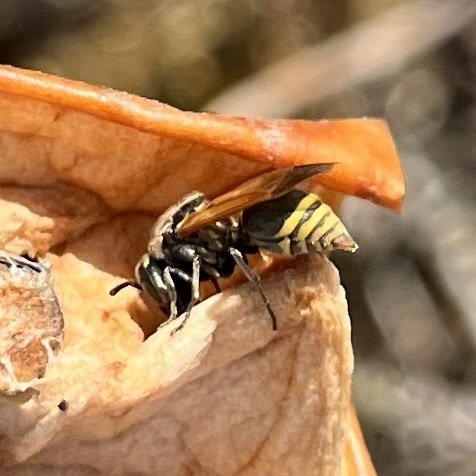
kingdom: Animalia
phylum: Arthropoda
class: Insecta
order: Hymenoptera
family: Vespidae
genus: Brachygastra
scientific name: Brachygastra mellifica
